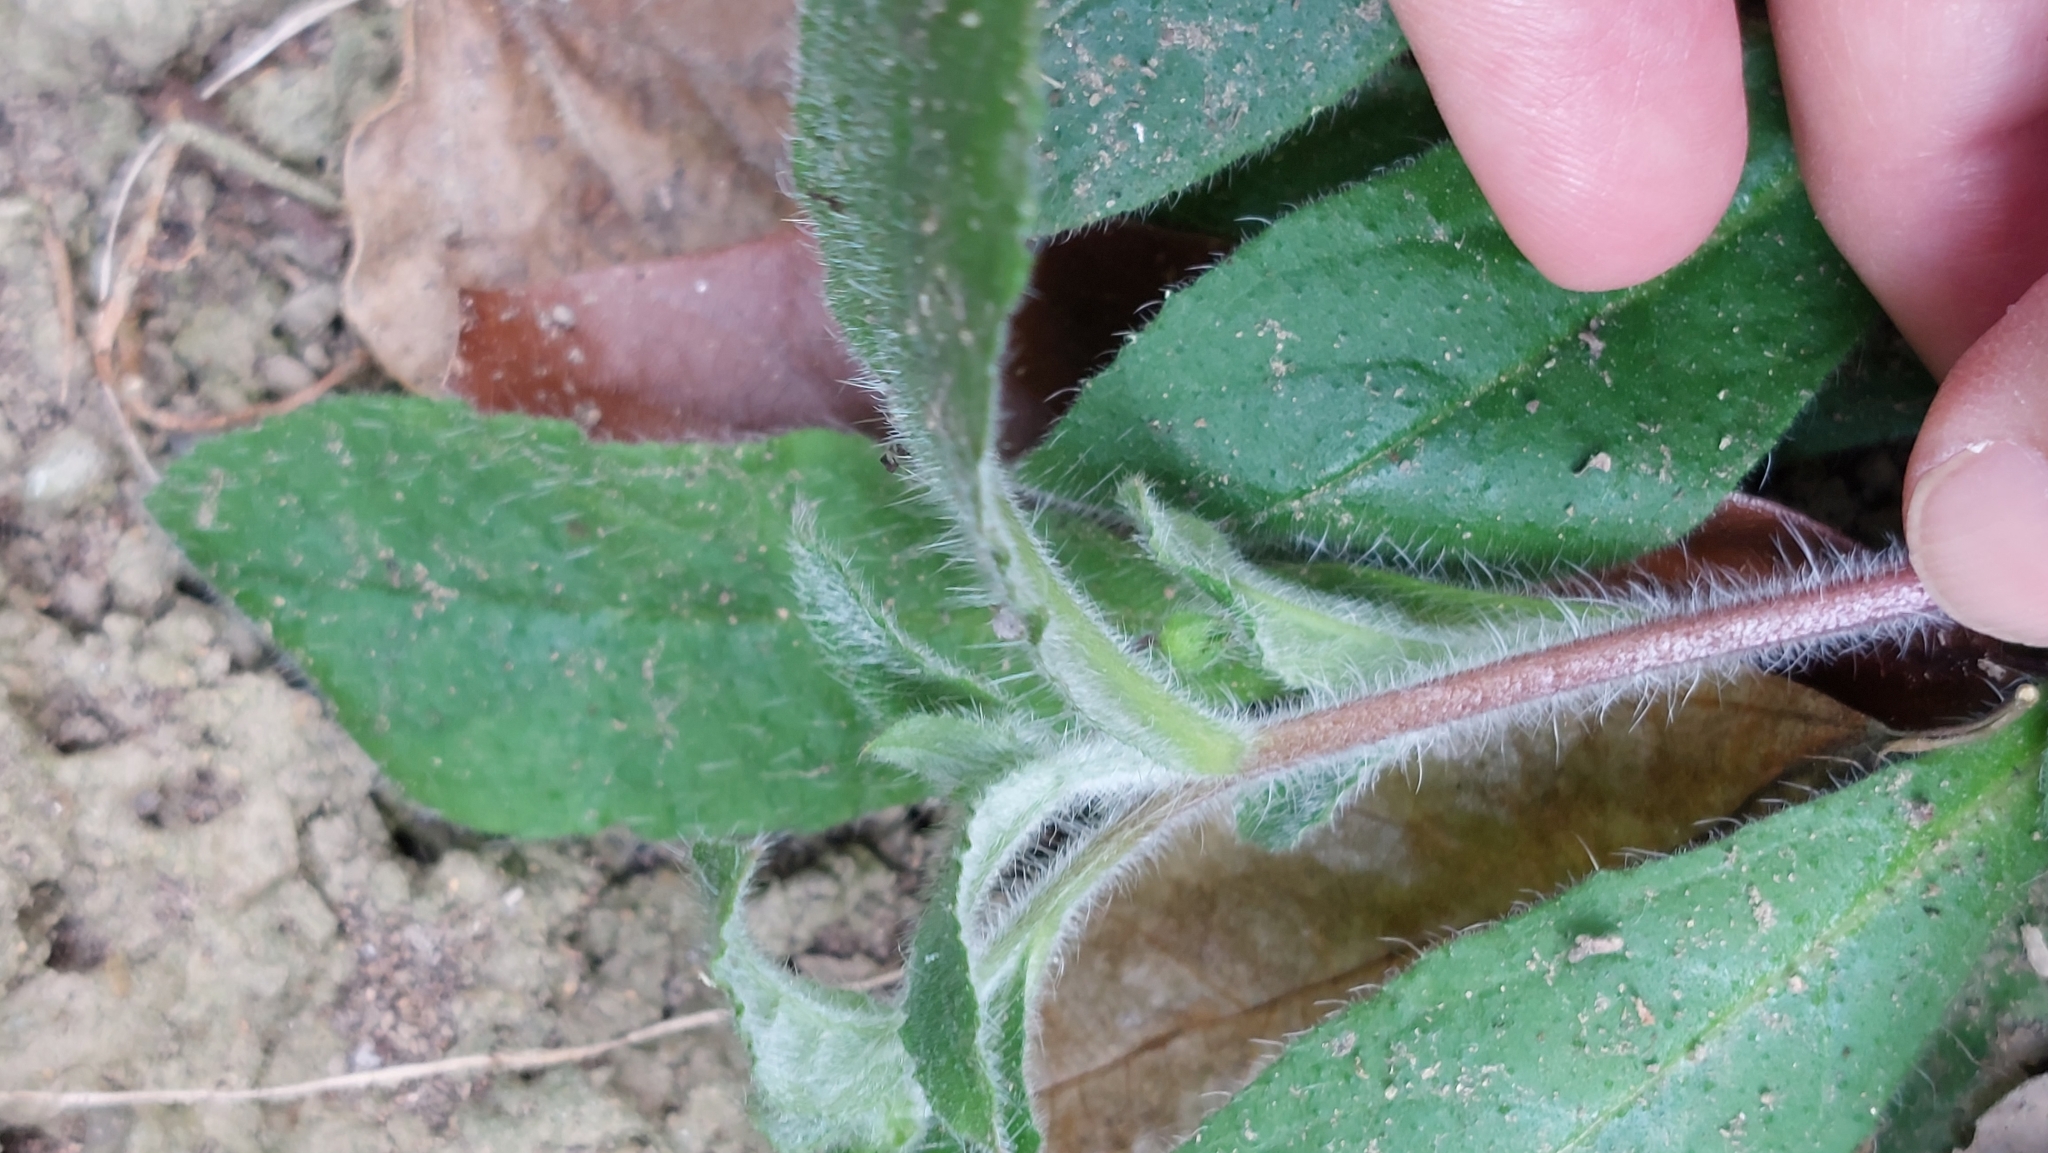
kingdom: Plantae
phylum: Tracheophyta
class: Magnoliopsida
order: Boraginales
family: Boraginaceae
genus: Thyrocarpus
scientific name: Thyrocarpus sampsonii
